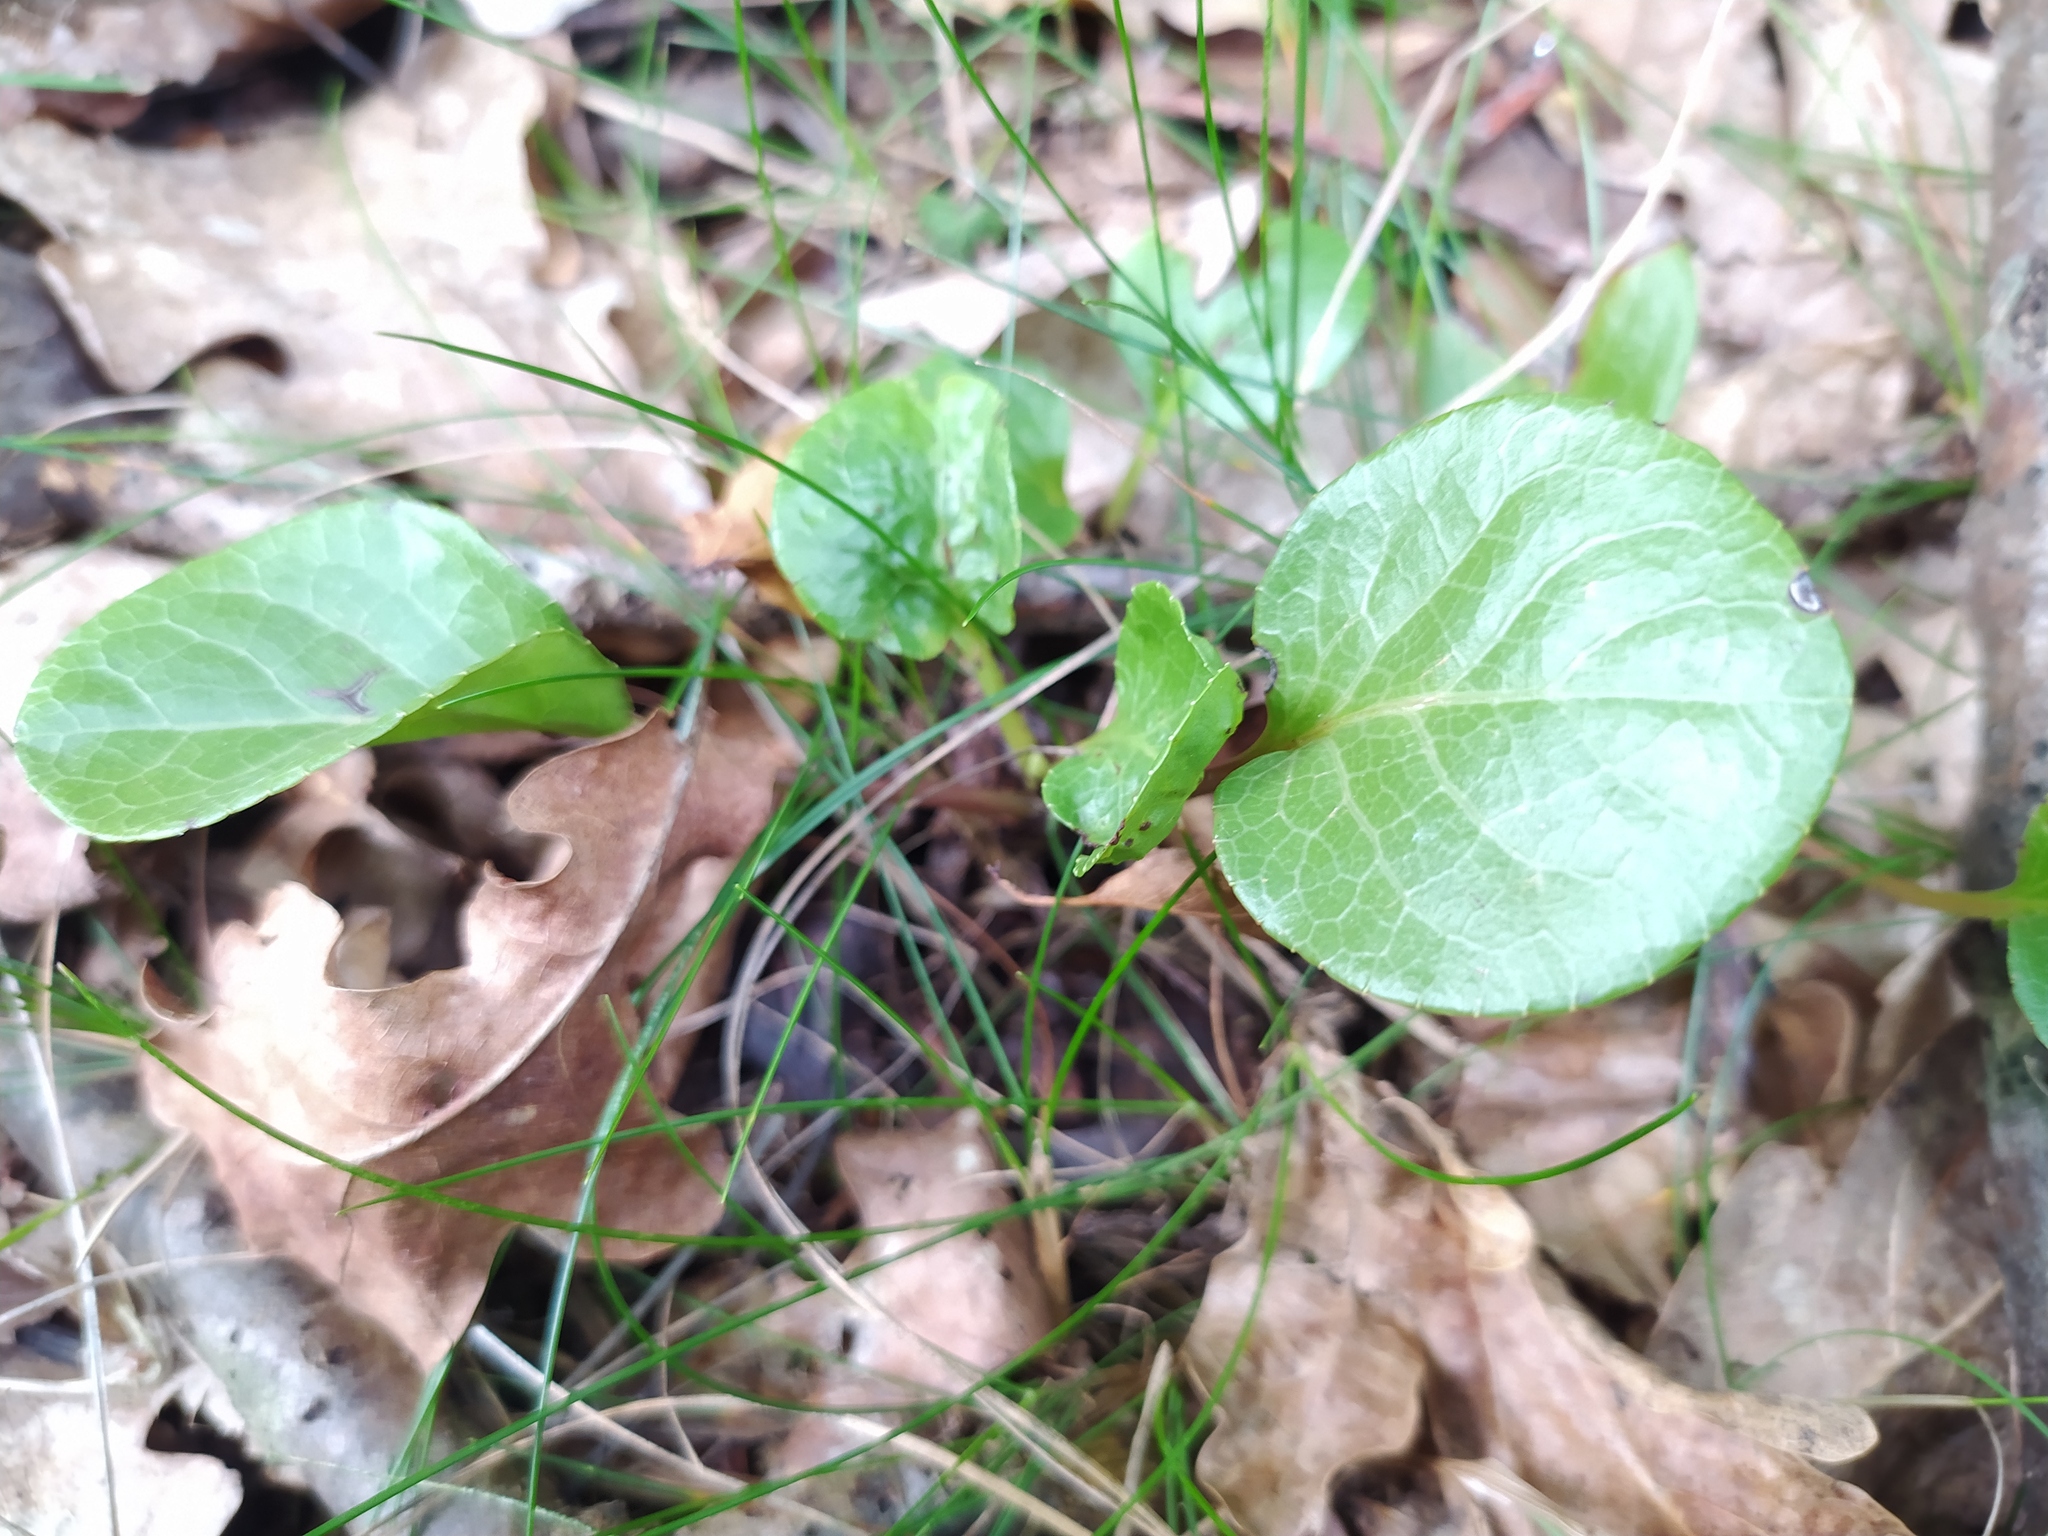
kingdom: Plantae
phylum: Tracheophyta
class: Magnoliopsida
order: Ericales
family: Ericaceae
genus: Pyrola
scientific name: Pyrola rotundifolia
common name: Round-leaved wintergreen
